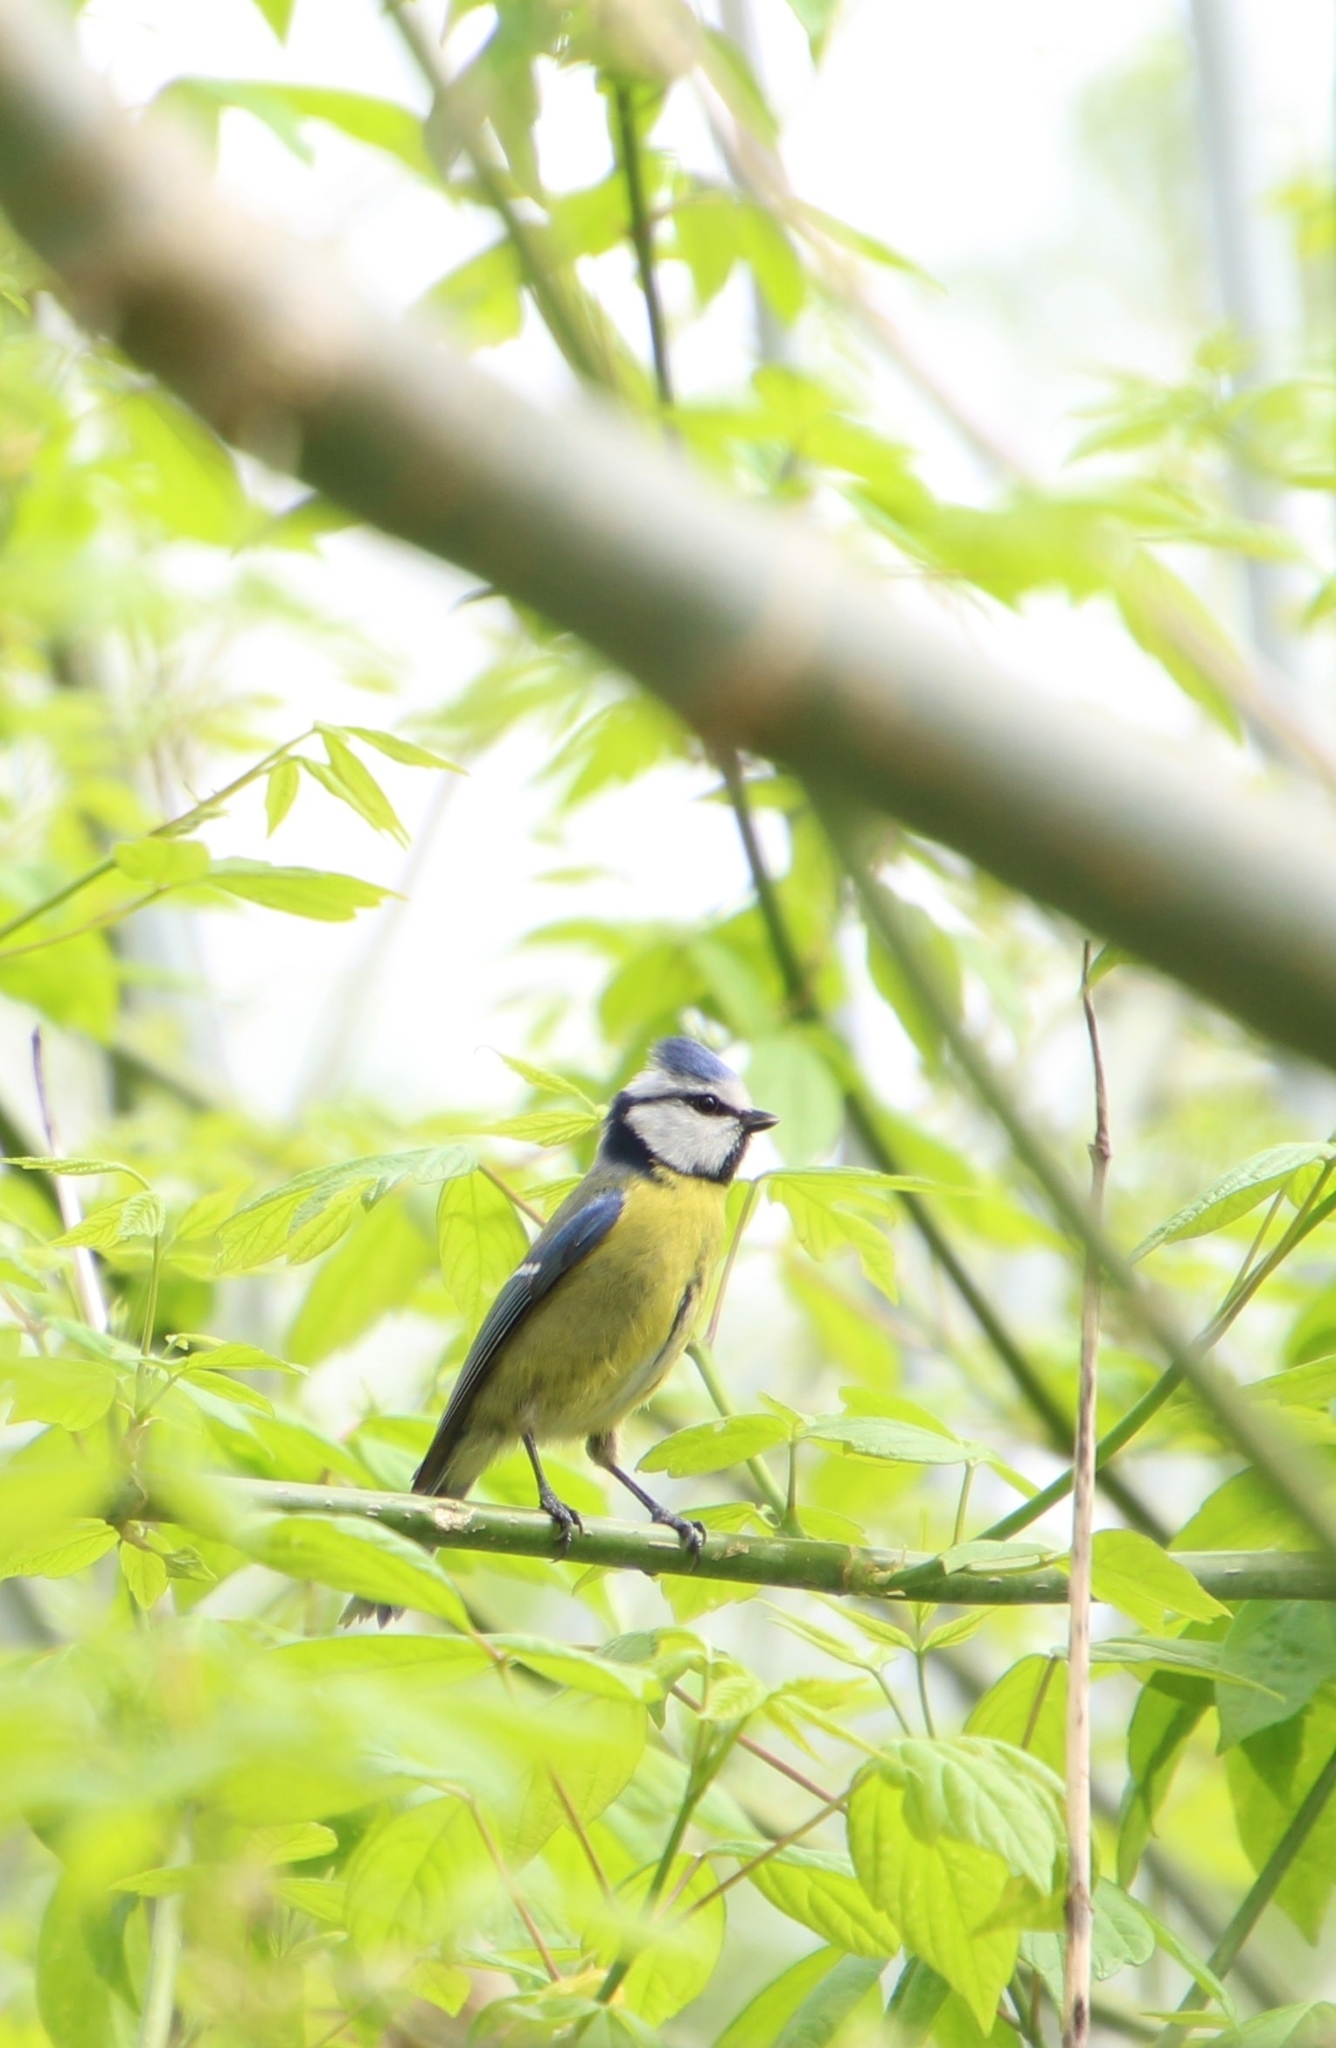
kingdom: Animalia
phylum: Chordata
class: Aves
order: Passeriformes
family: Paridae
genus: Cyanistes
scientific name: Cyanistes caeruleus
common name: Eurasian blue tit
